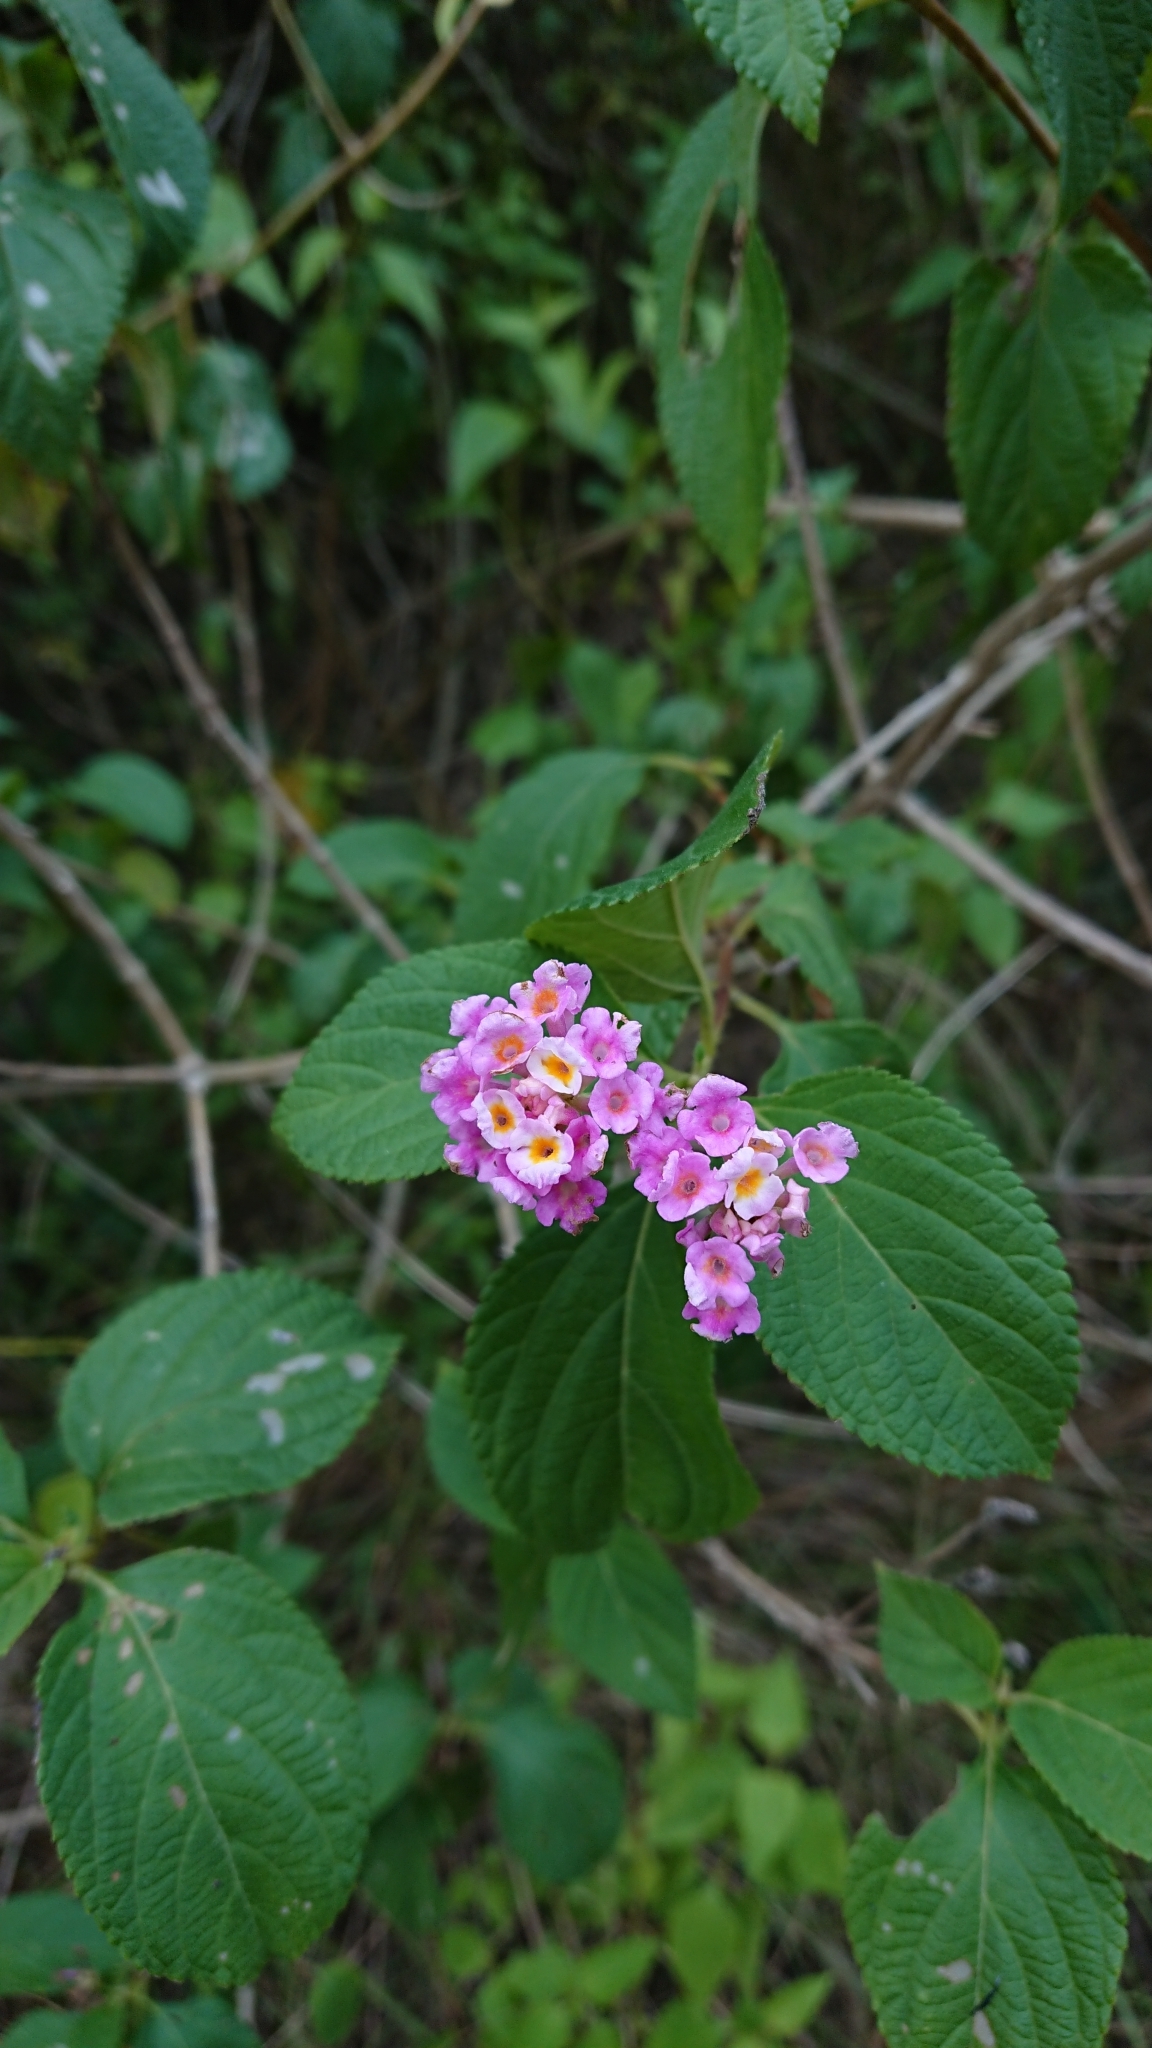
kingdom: Plantae
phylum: Tracheophyta
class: Magnoliopsida
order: Lamiales
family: Verbenaceae
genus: Lantana
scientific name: Lantana camara
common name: Lantana
